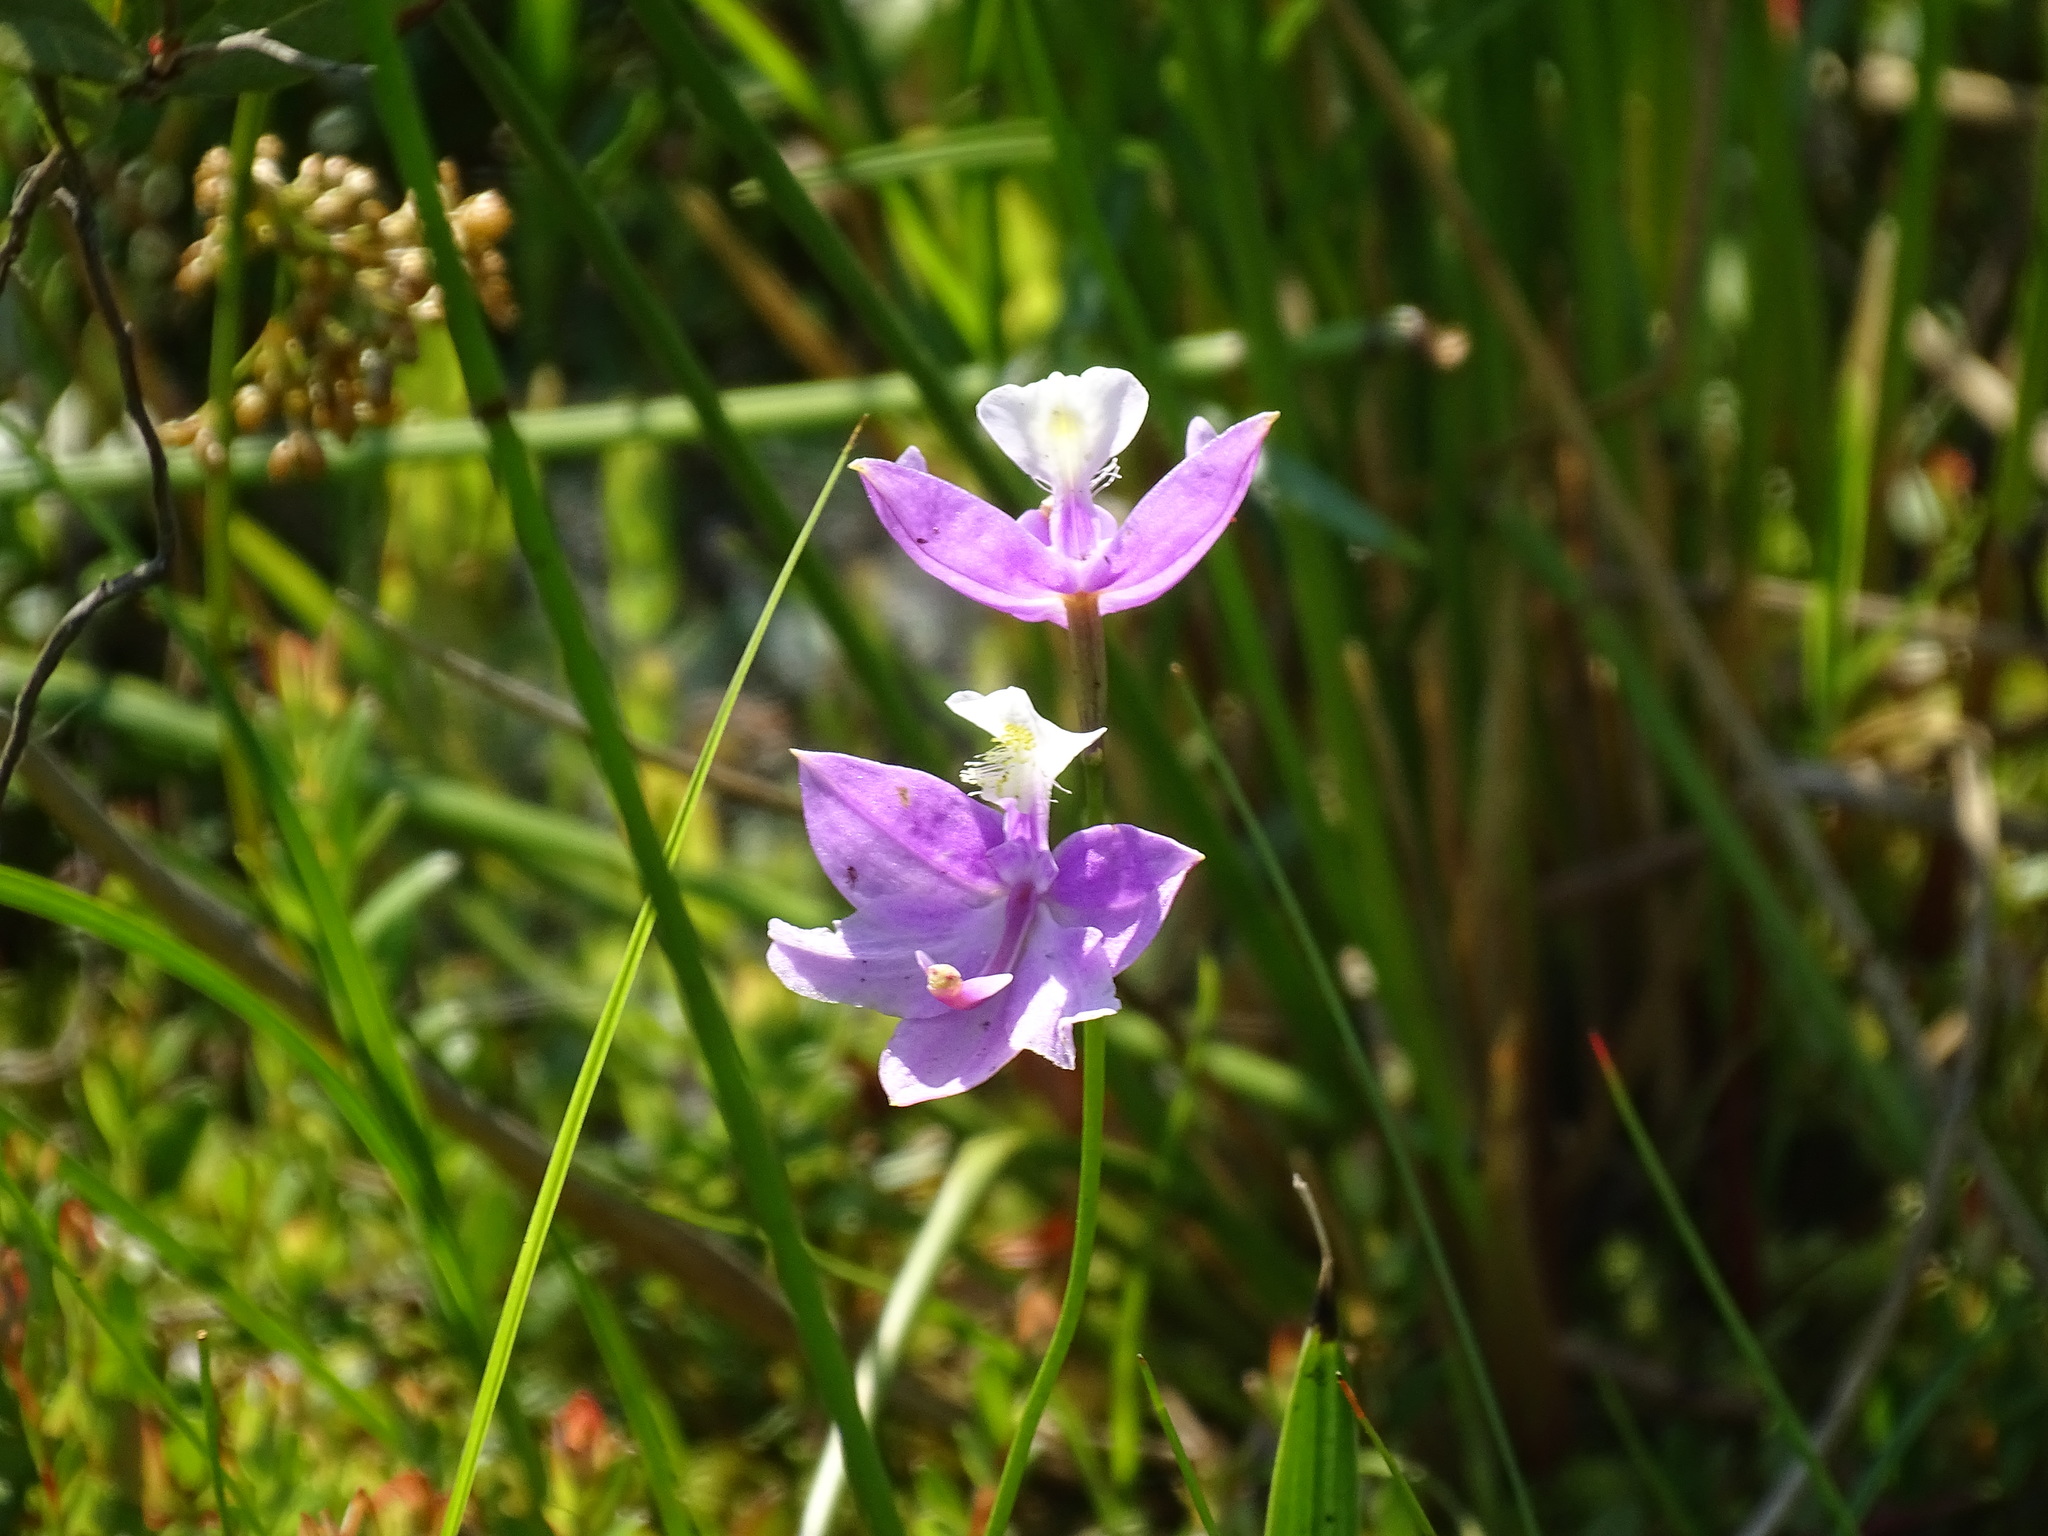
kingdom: Plantae
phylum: Tracheophyta
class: Liliopsida
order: Asparagales
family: Orchidaceae
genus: Calopogon
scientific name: Calopogon tuberosus
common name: Grass-pink
